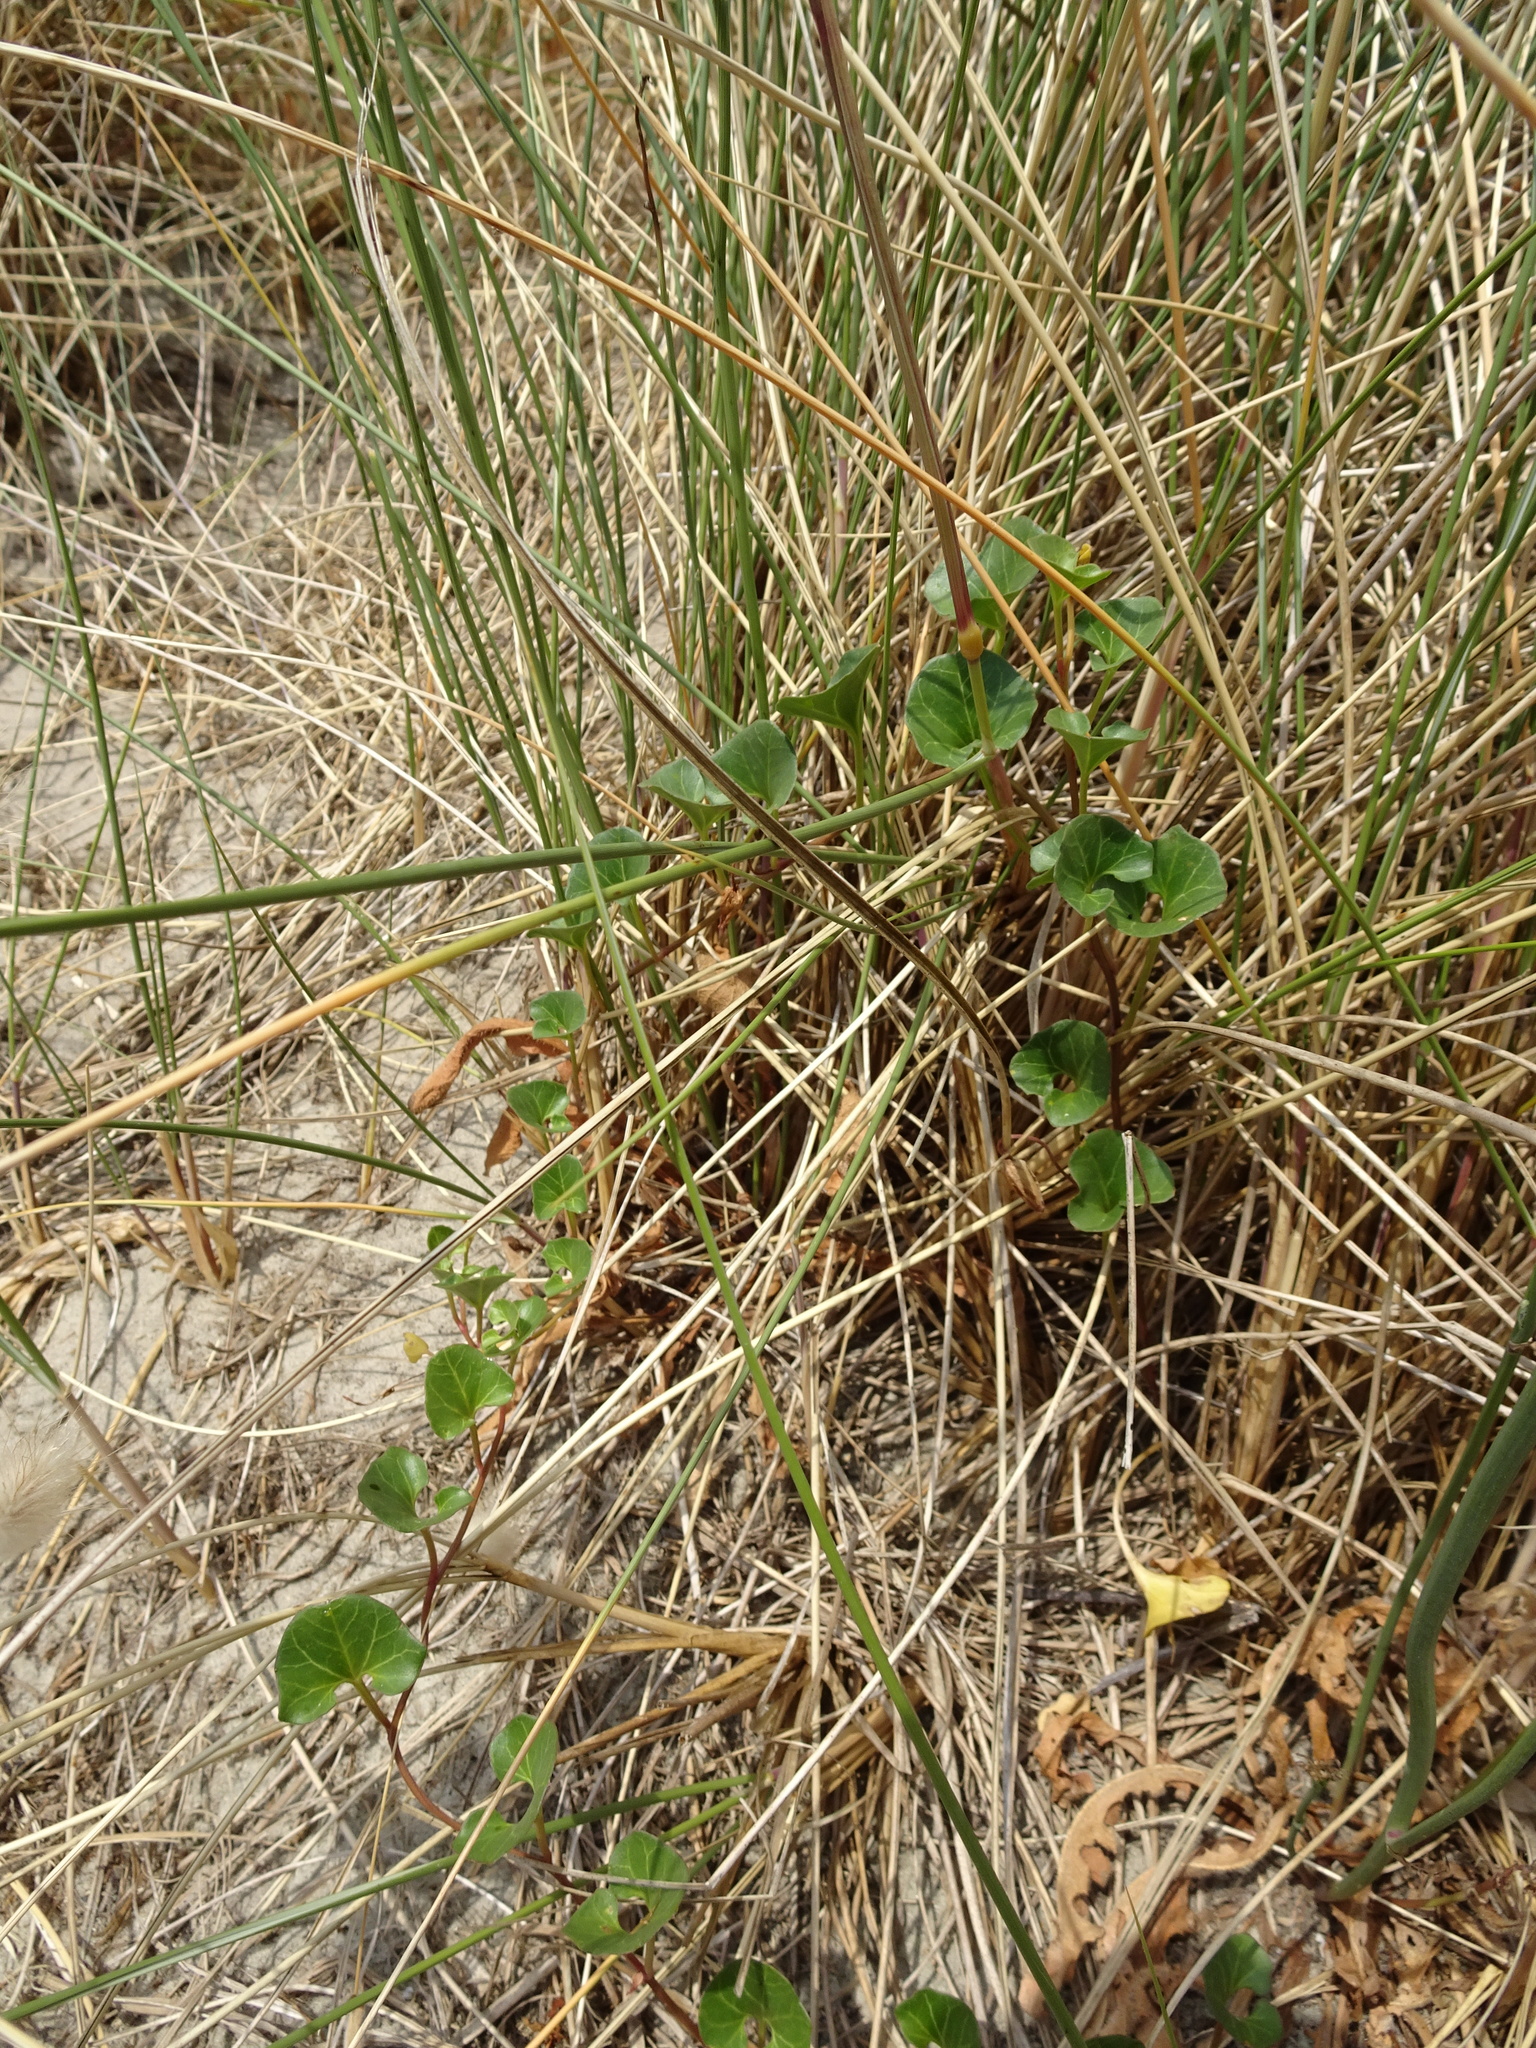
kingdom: Plantae
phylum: Tracheophyta
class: Magnoliopsida
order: Solanales
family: Convolvulaceae
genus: Calystegia
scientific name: Calystegia soldanella
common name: Sea bindweed
